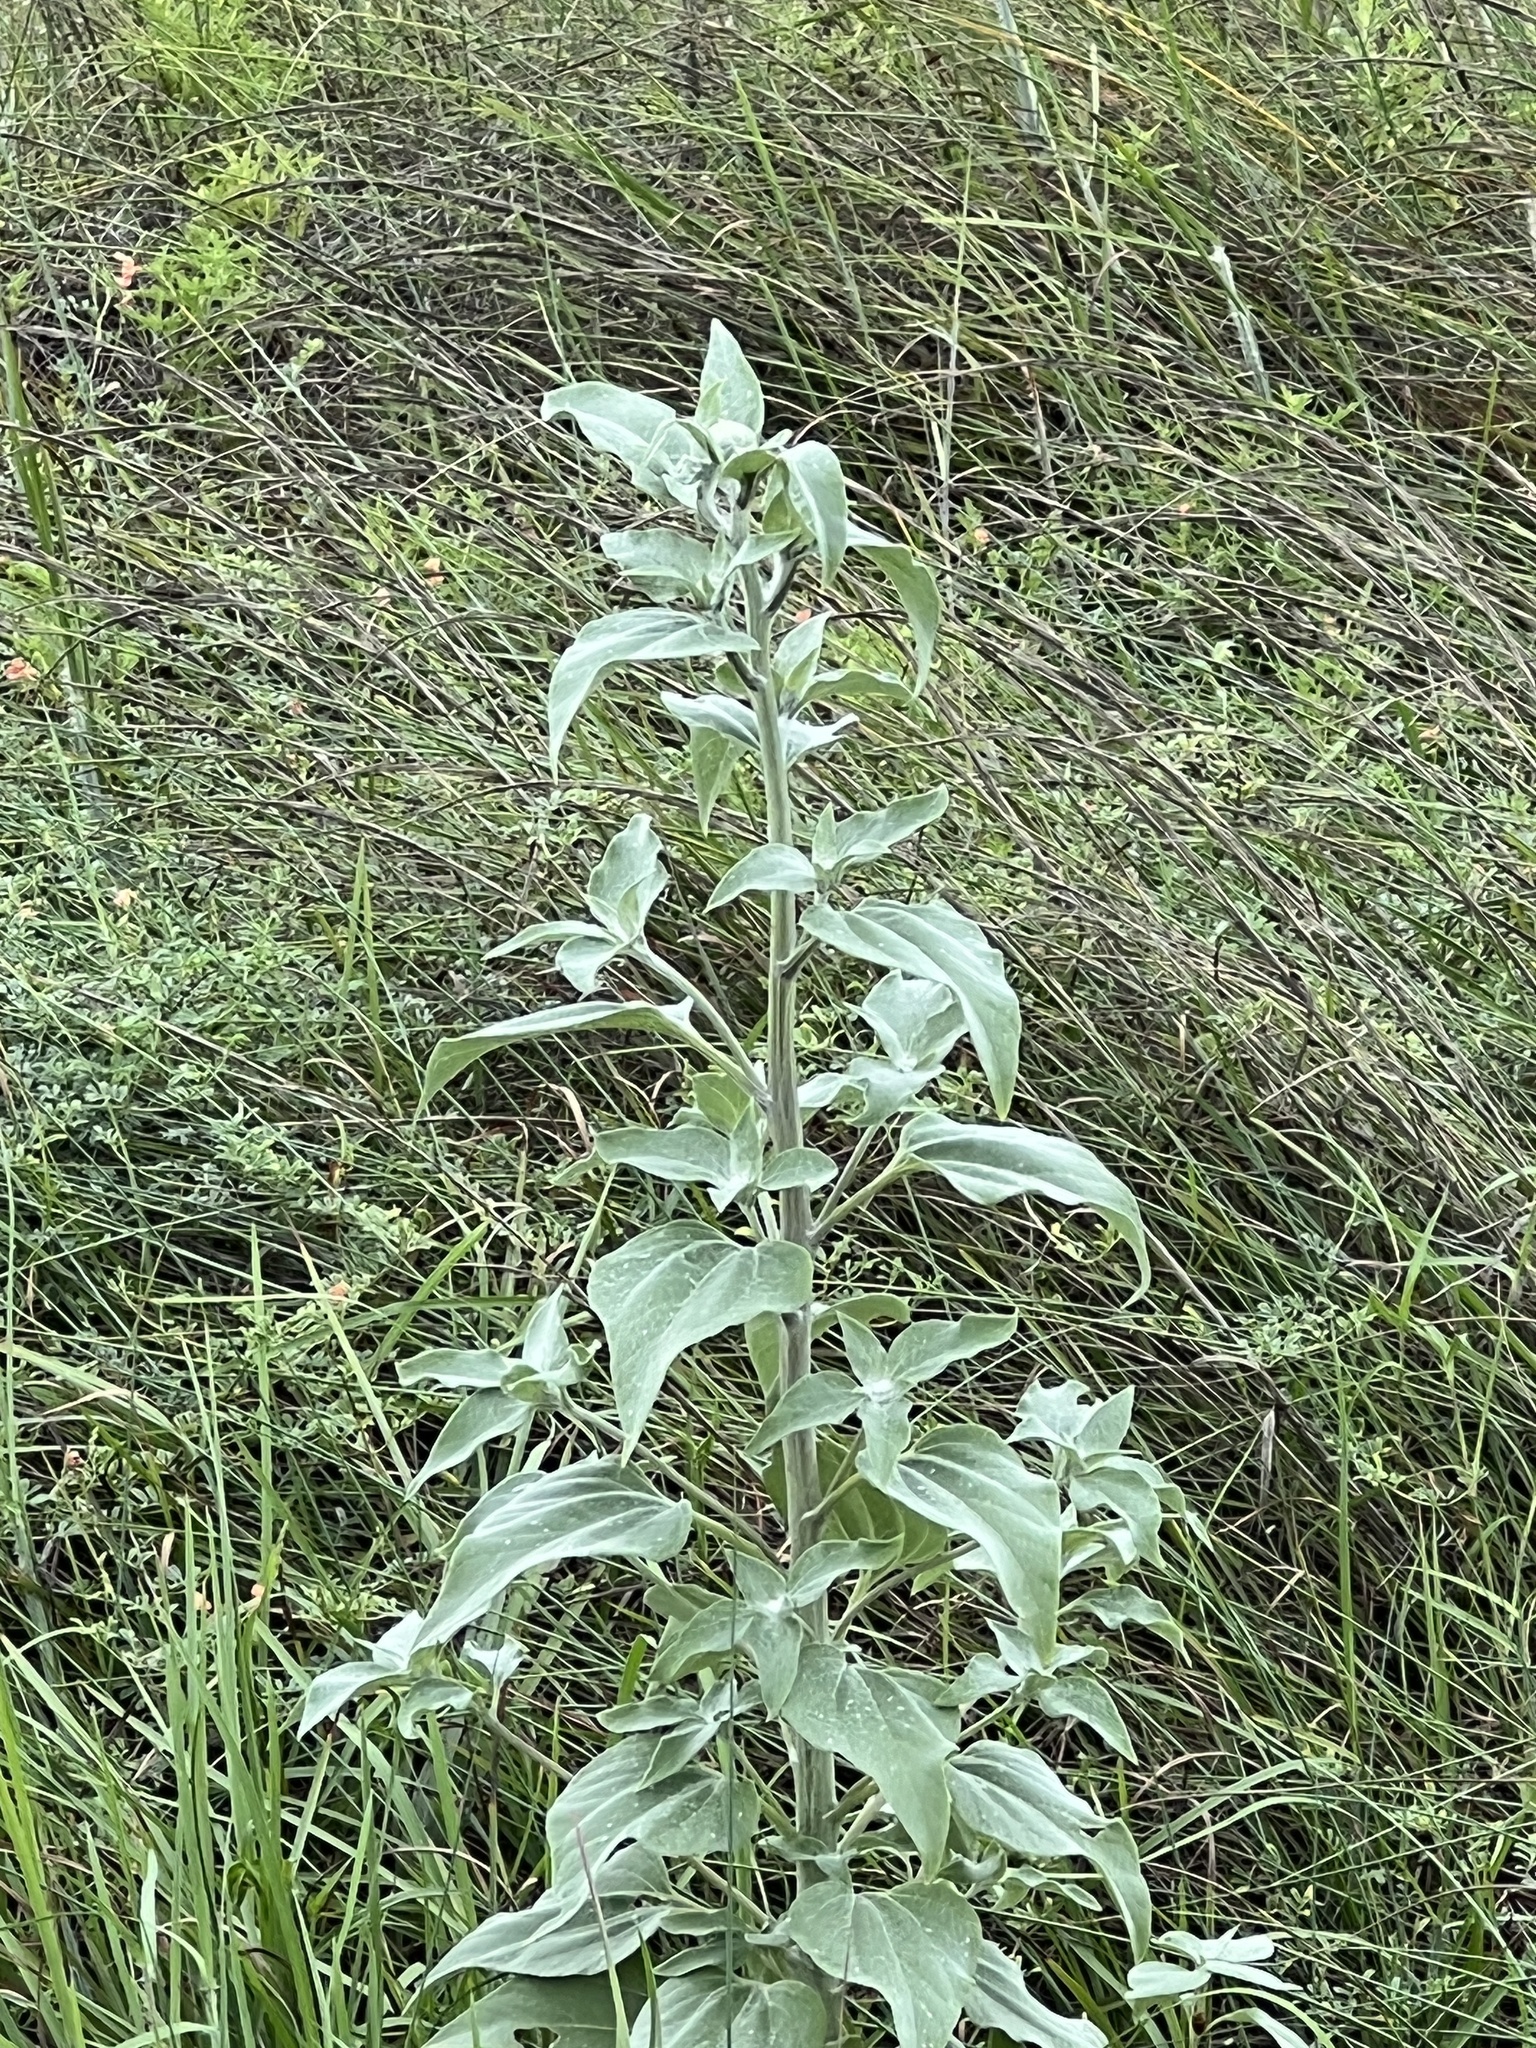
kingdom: Plantae
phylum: Tracheophyta
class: Magnoliopsida
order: Asterales
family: Asteraceae
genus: Helianthus
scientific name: Helianthus argophyllus
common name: Silverleaf sunflower
